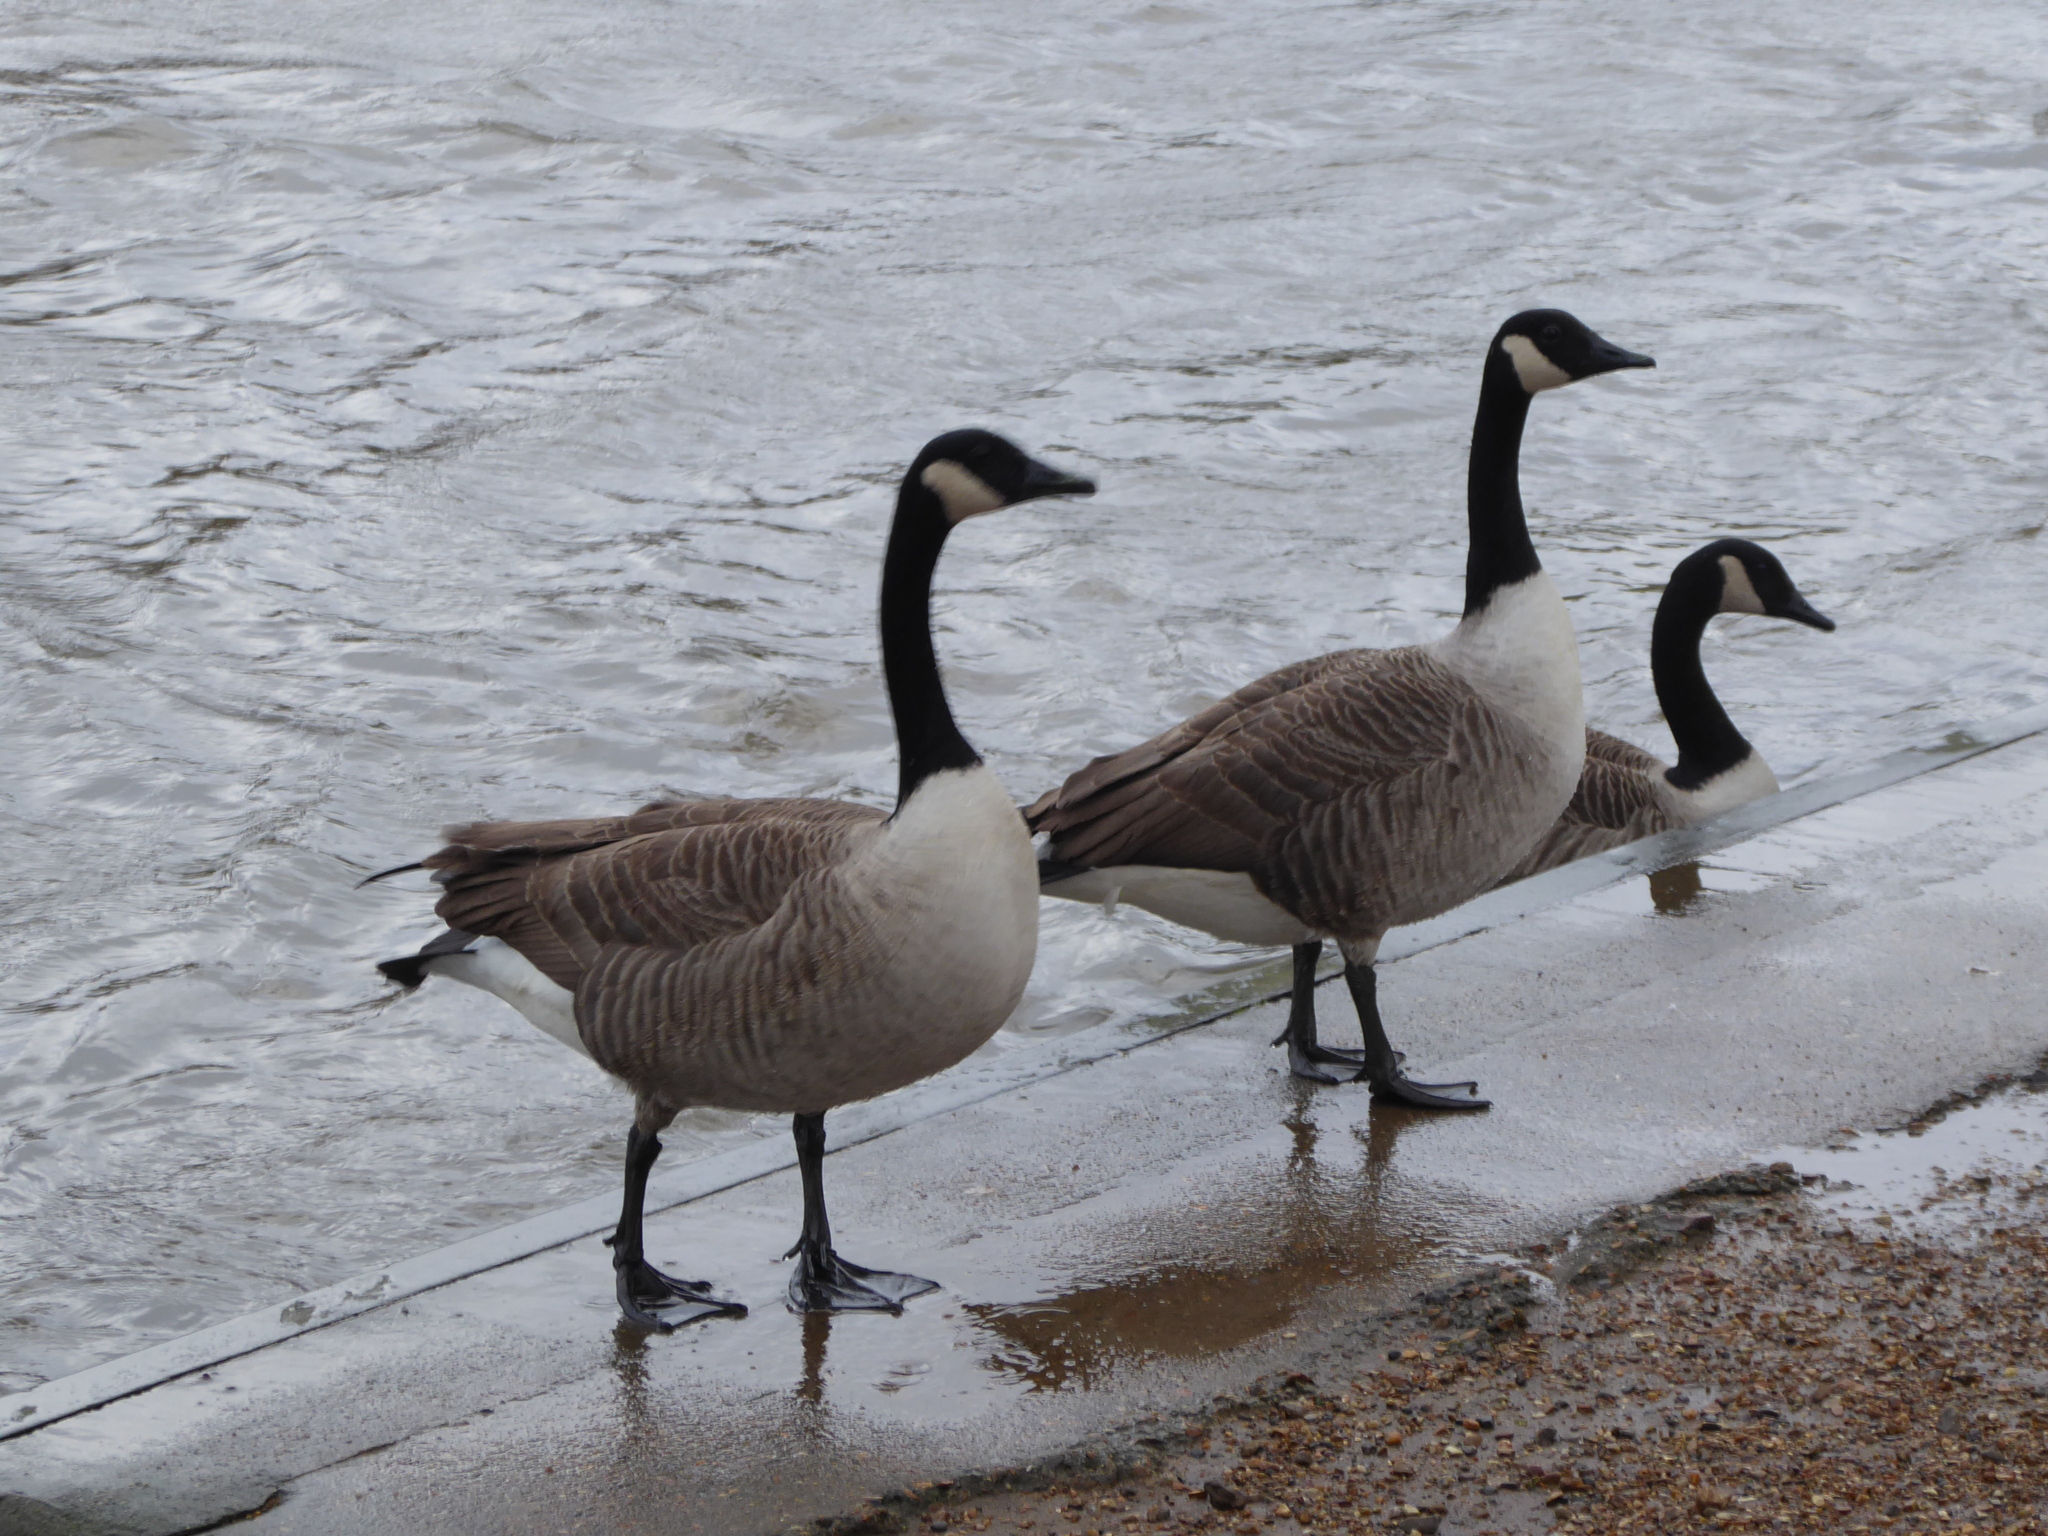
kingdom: Animalia
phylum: Chordata
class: Aves
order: Anseriformes
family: Anatidae
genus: Branta
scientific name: Branta canadensis
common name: Canada goose
